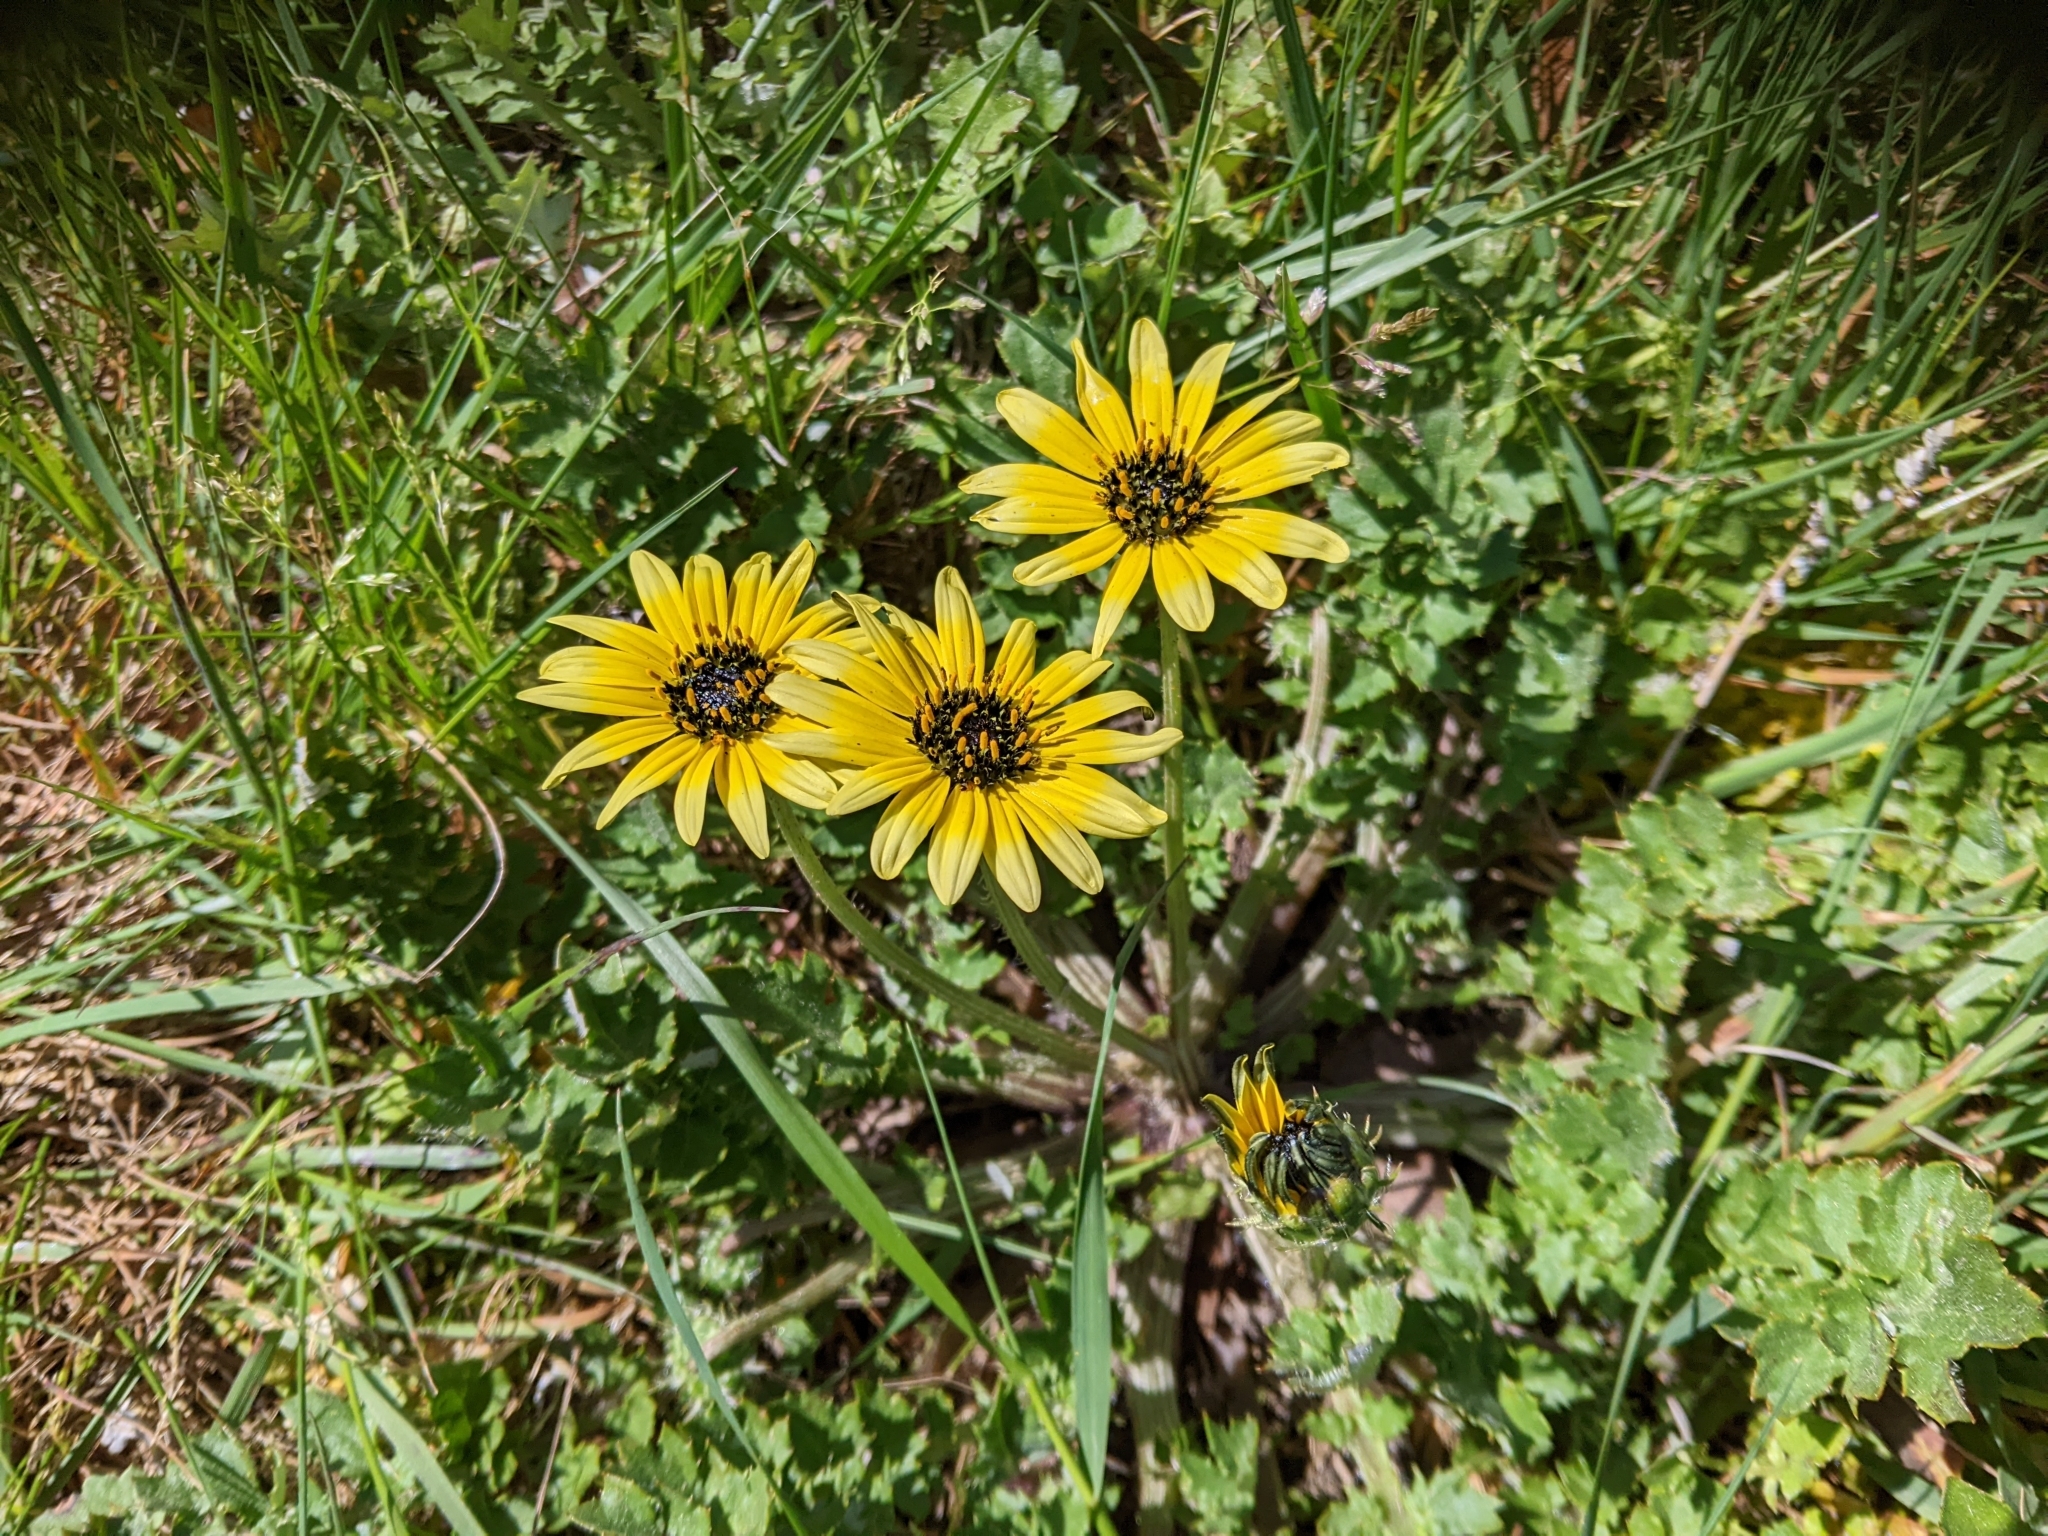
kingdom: Plantae
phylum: Tracheophyta
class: Magnoliopsida
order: Asterales
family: Asteraceae
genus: Arctotheca
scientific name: Arctotheca calendula
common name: Capeweed
